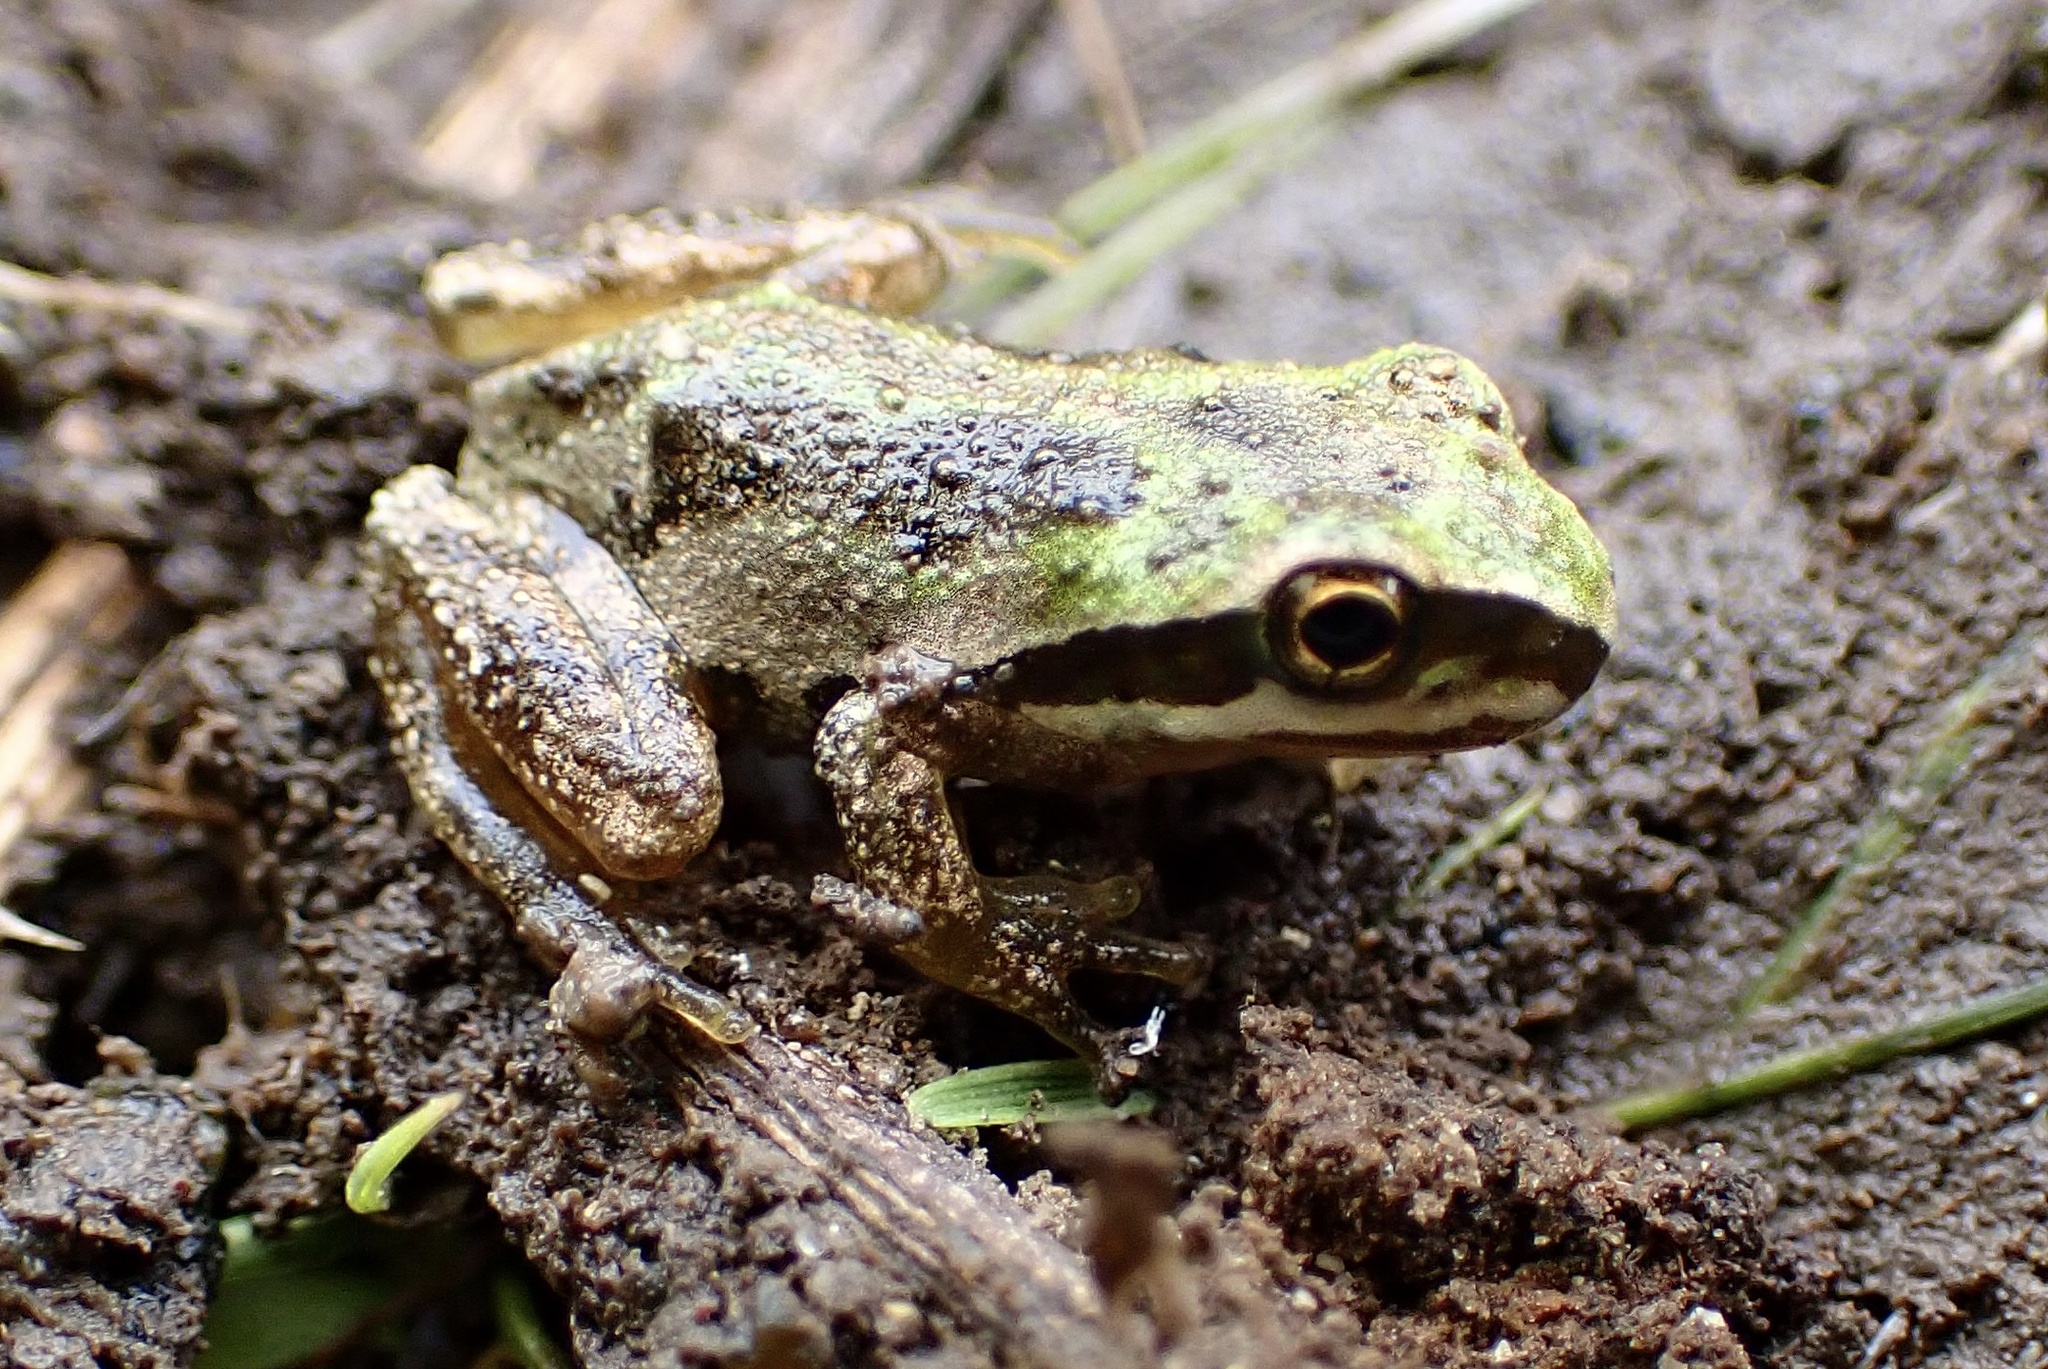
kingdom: Animalia
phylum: Chordata
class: Amphibia
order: Anura
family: Hylidae
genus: Pseudacris
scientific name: Pseudacris regilla
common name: Pacific chorus frog
